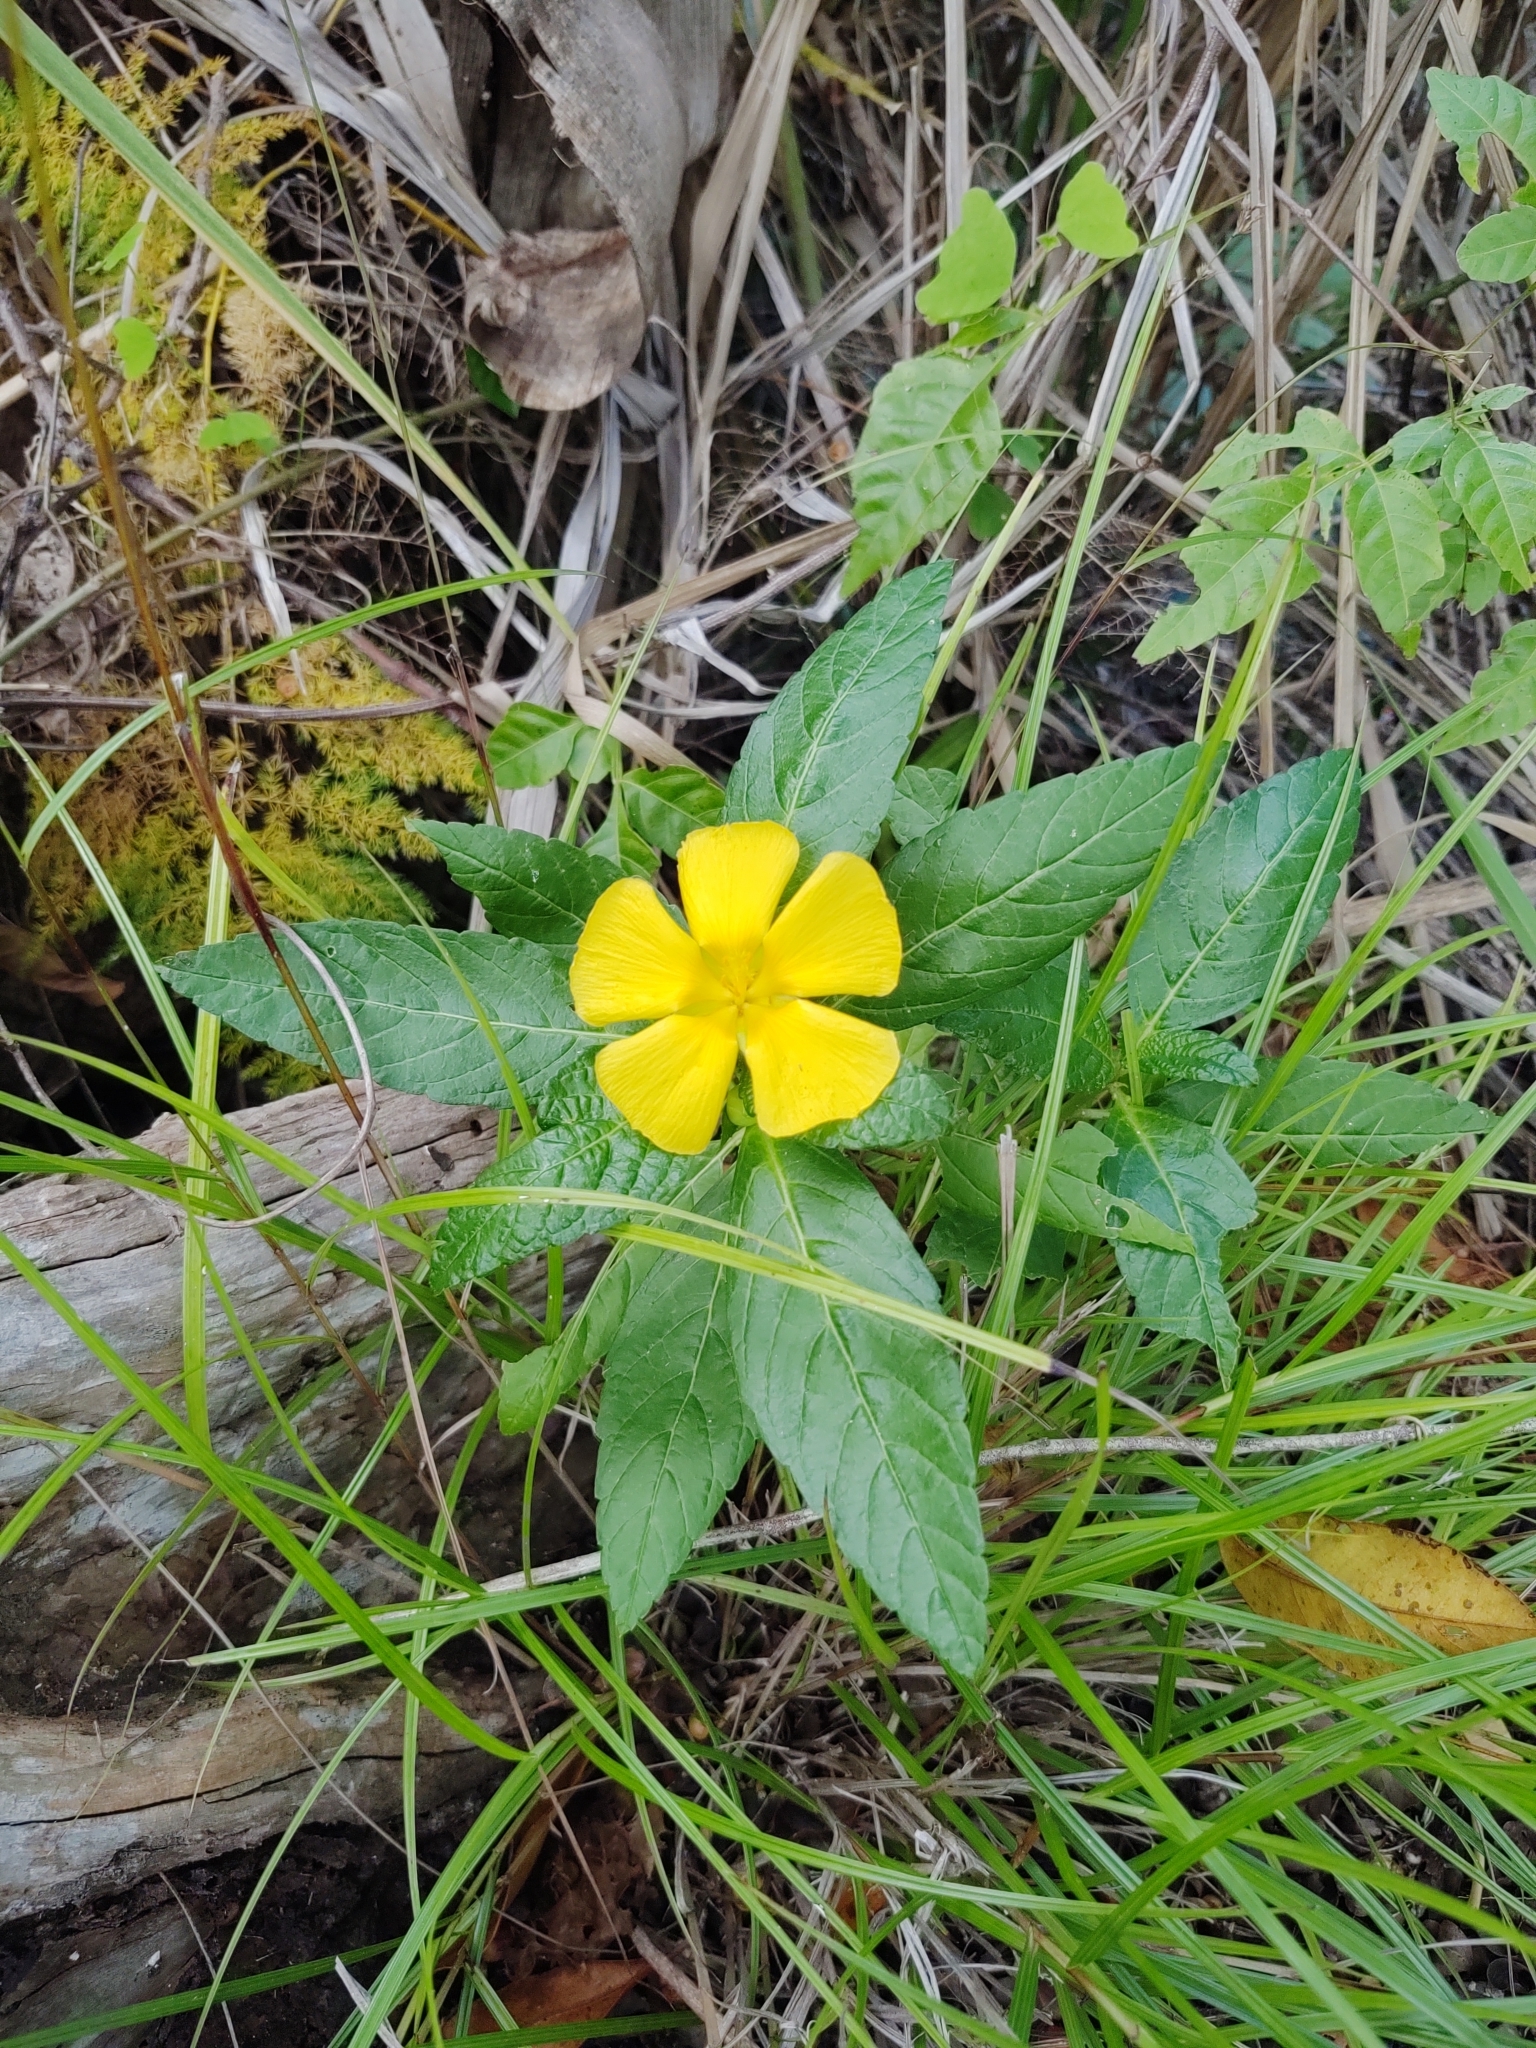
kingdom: Plantae
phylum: Tracheophyta
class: Magnoliopsida
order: Malpighiales
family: Turneraceae
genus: Turnera
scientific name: Turnera ulmifolia
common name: Ramgoat dashalong
